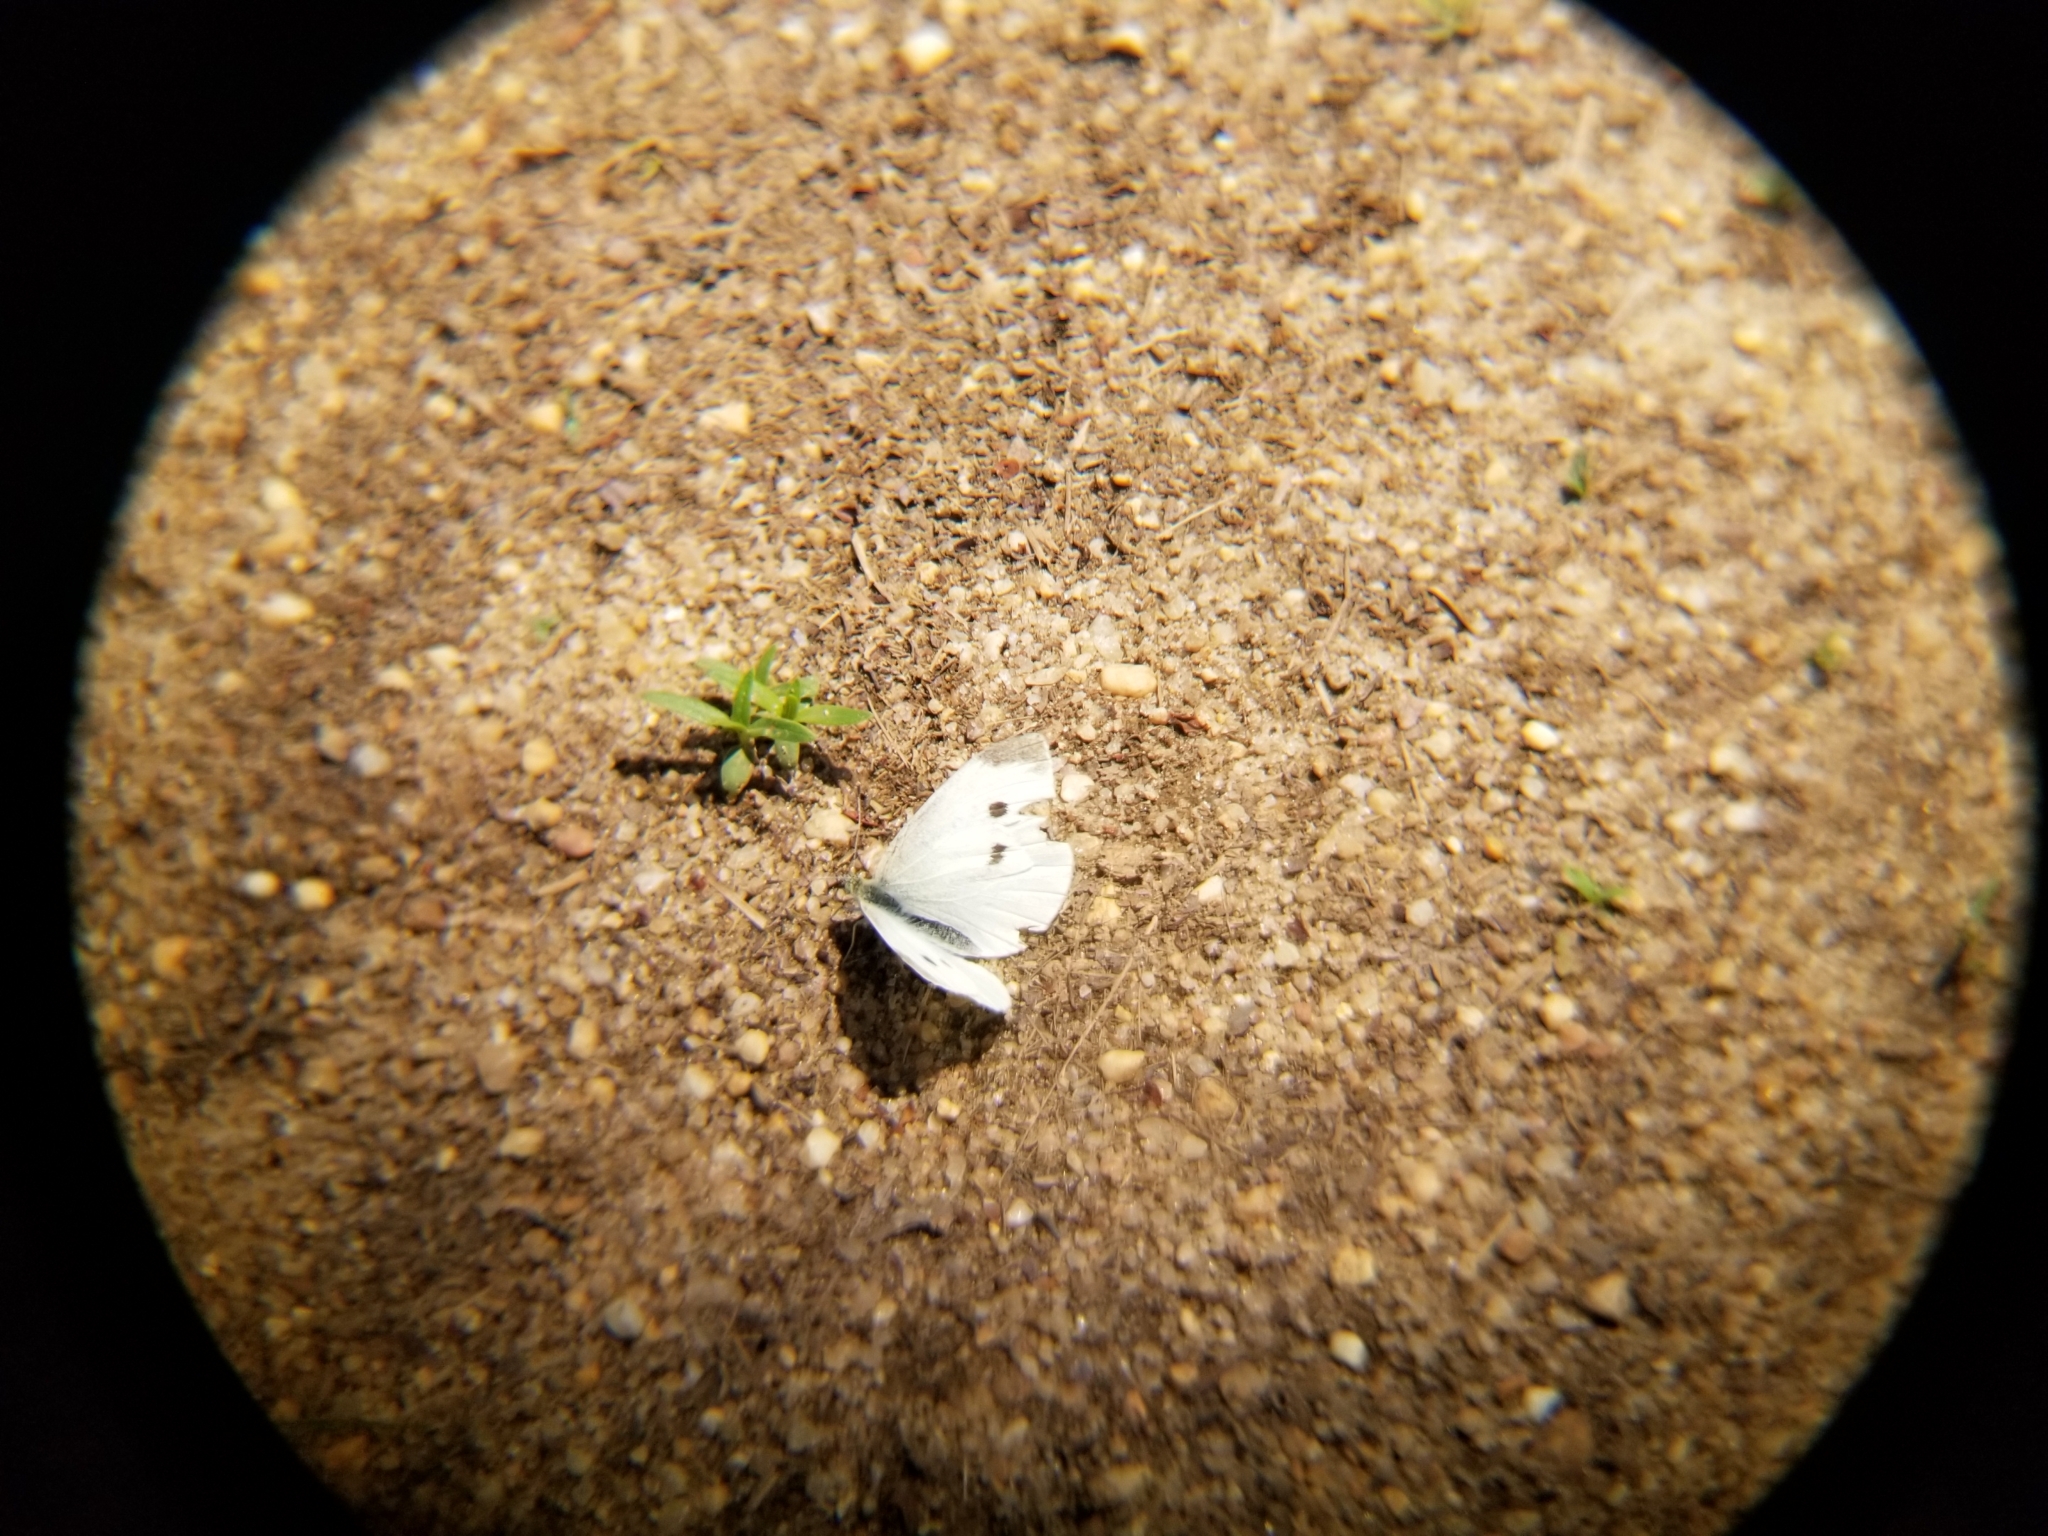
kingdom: Animalia
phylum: Arthropoda
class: Insecta
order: Lepidoptera
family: Pieridae
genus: Pieris
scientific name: Pieris rapae
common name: Small white
